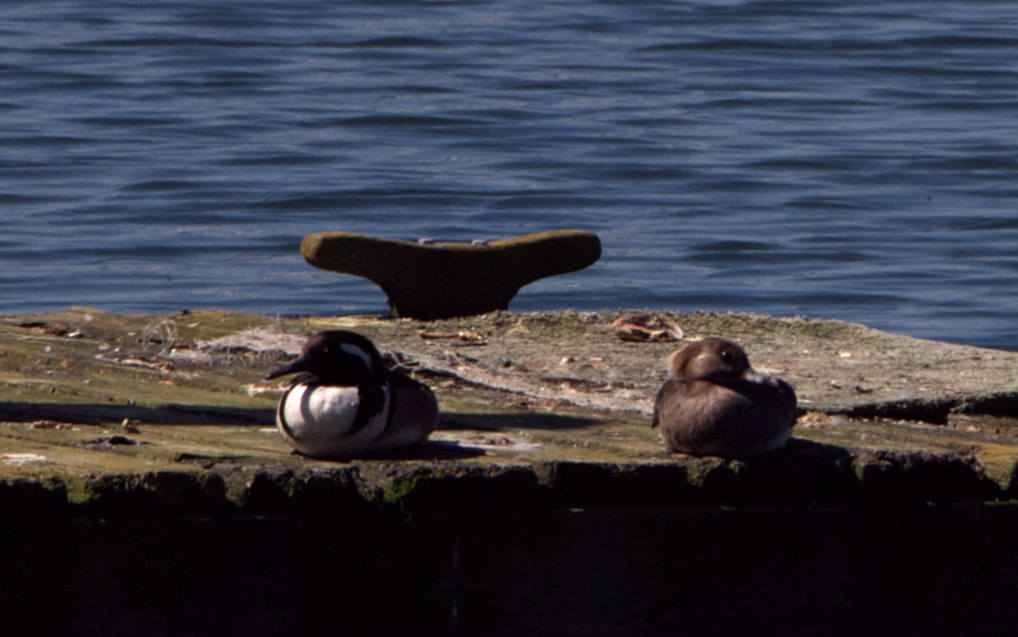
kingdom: Animalia
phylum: Chordata
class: Aves
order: Anseriformes
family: Anatidae
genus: Lophodytes
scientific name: Lophodytes cucullatus
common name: Hooded merganser
